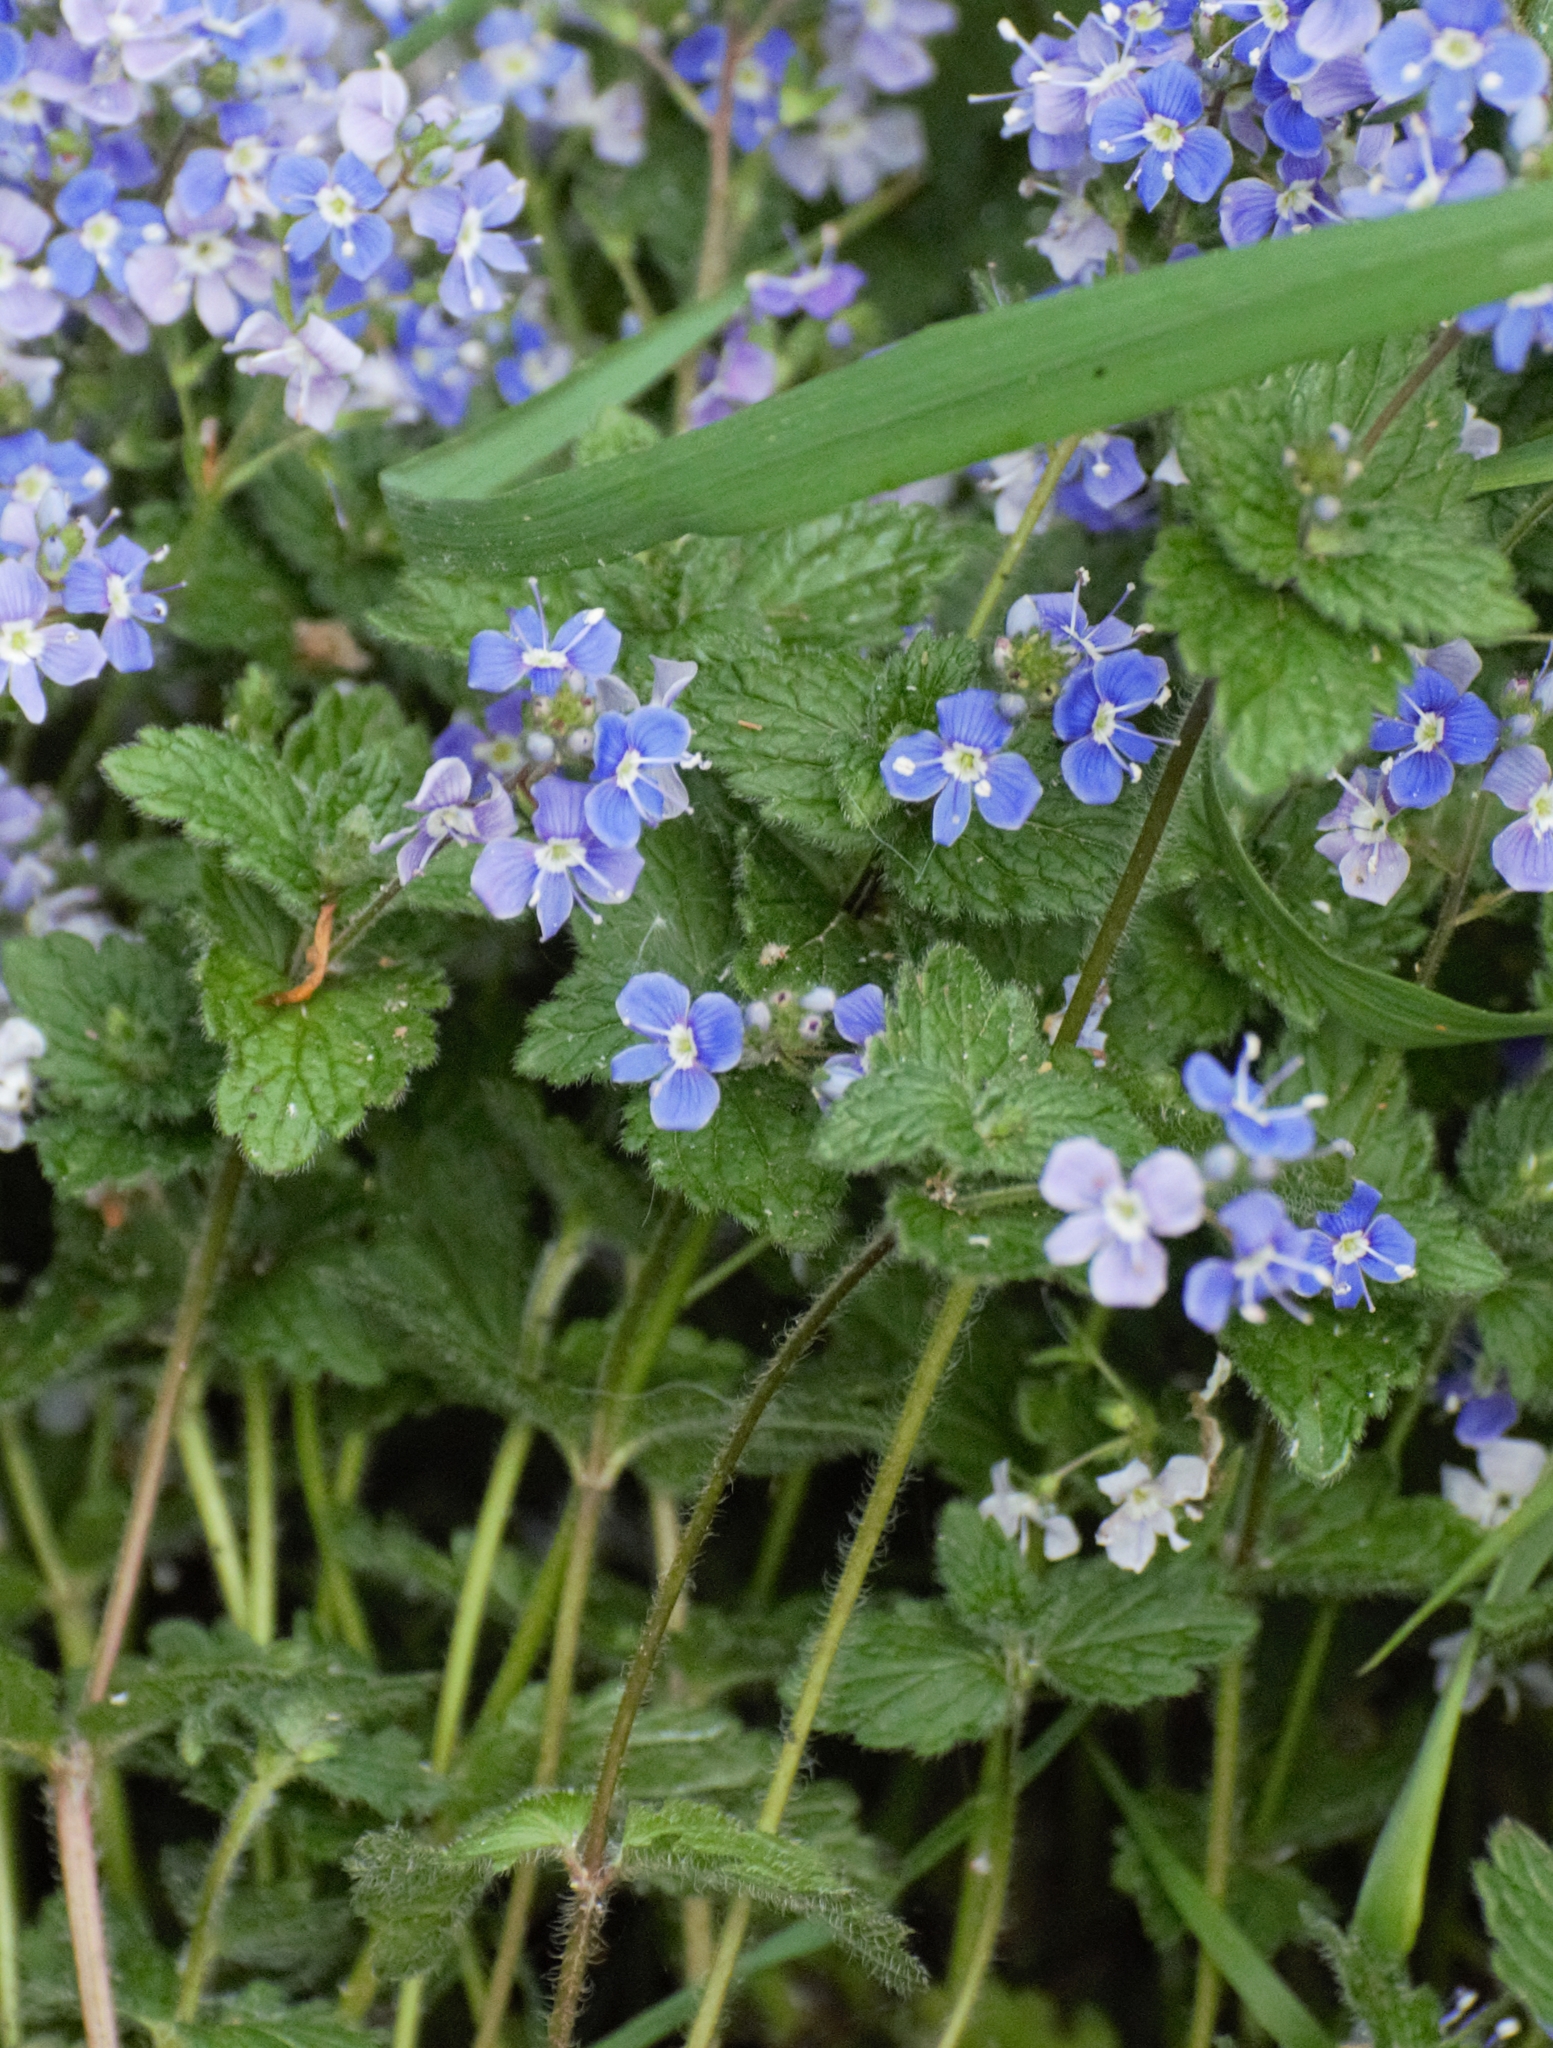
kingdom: Plantae
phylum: Tracheophyta
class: Magnoliopsida
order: Lamiales
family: Plantaginaceae
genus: Veronica
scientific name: Veronica chamaedrys
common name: Germander speedwell
